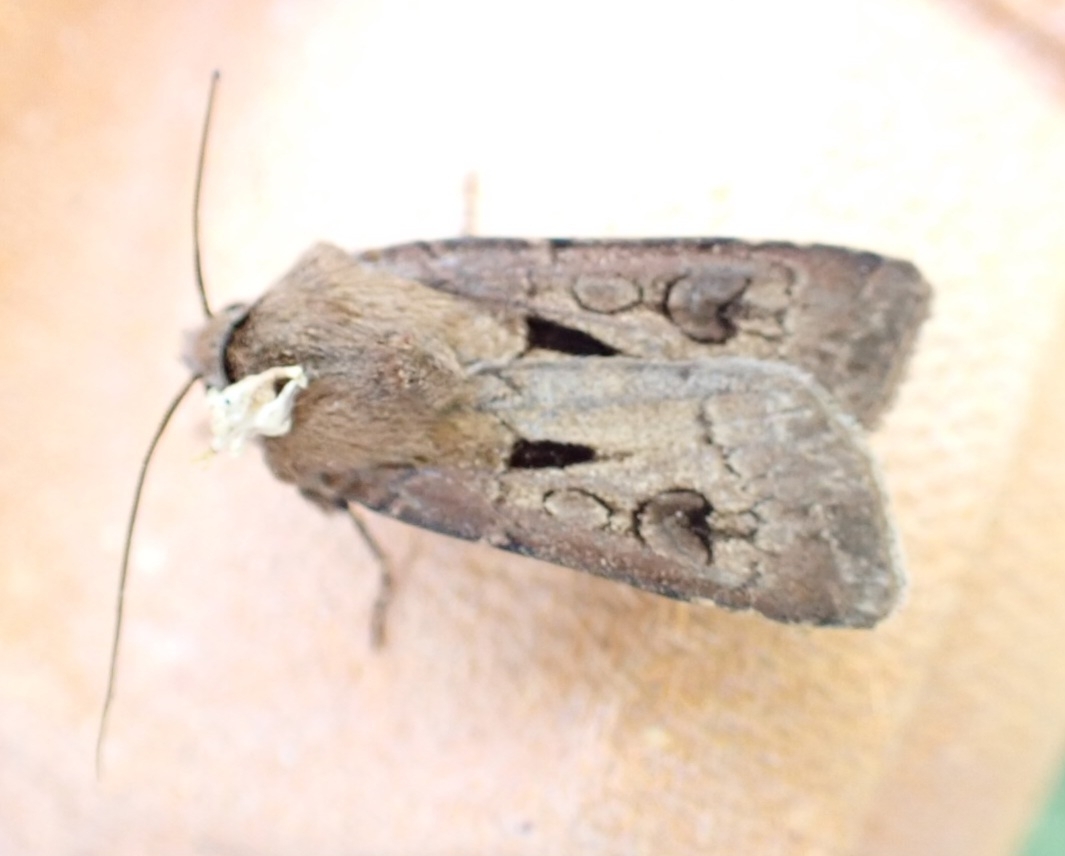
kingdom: Animalia
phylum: Arthropoda
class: Insecta
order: Lepidoptera
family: Noctuidae
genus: Agrotis
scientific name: Agrotis exclamationis
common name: Heart and dart
